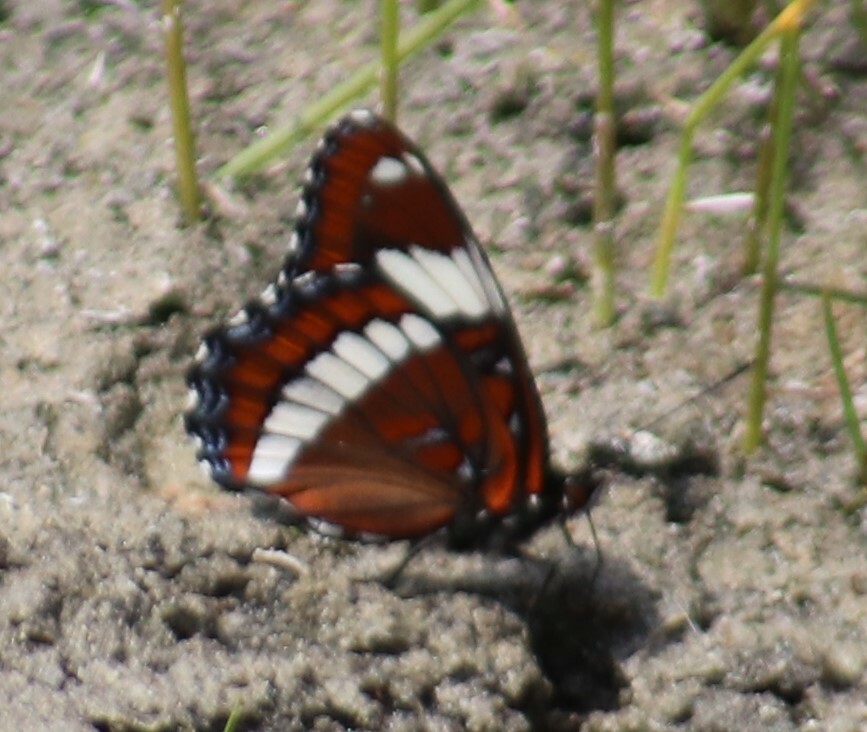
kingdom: Animalia
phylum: Arthropoda
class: Insecta
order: Lepidoptera
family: Nymphalidae
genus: Limenitis
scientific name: Limenitis arthemis
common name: Red-spotted admiral
